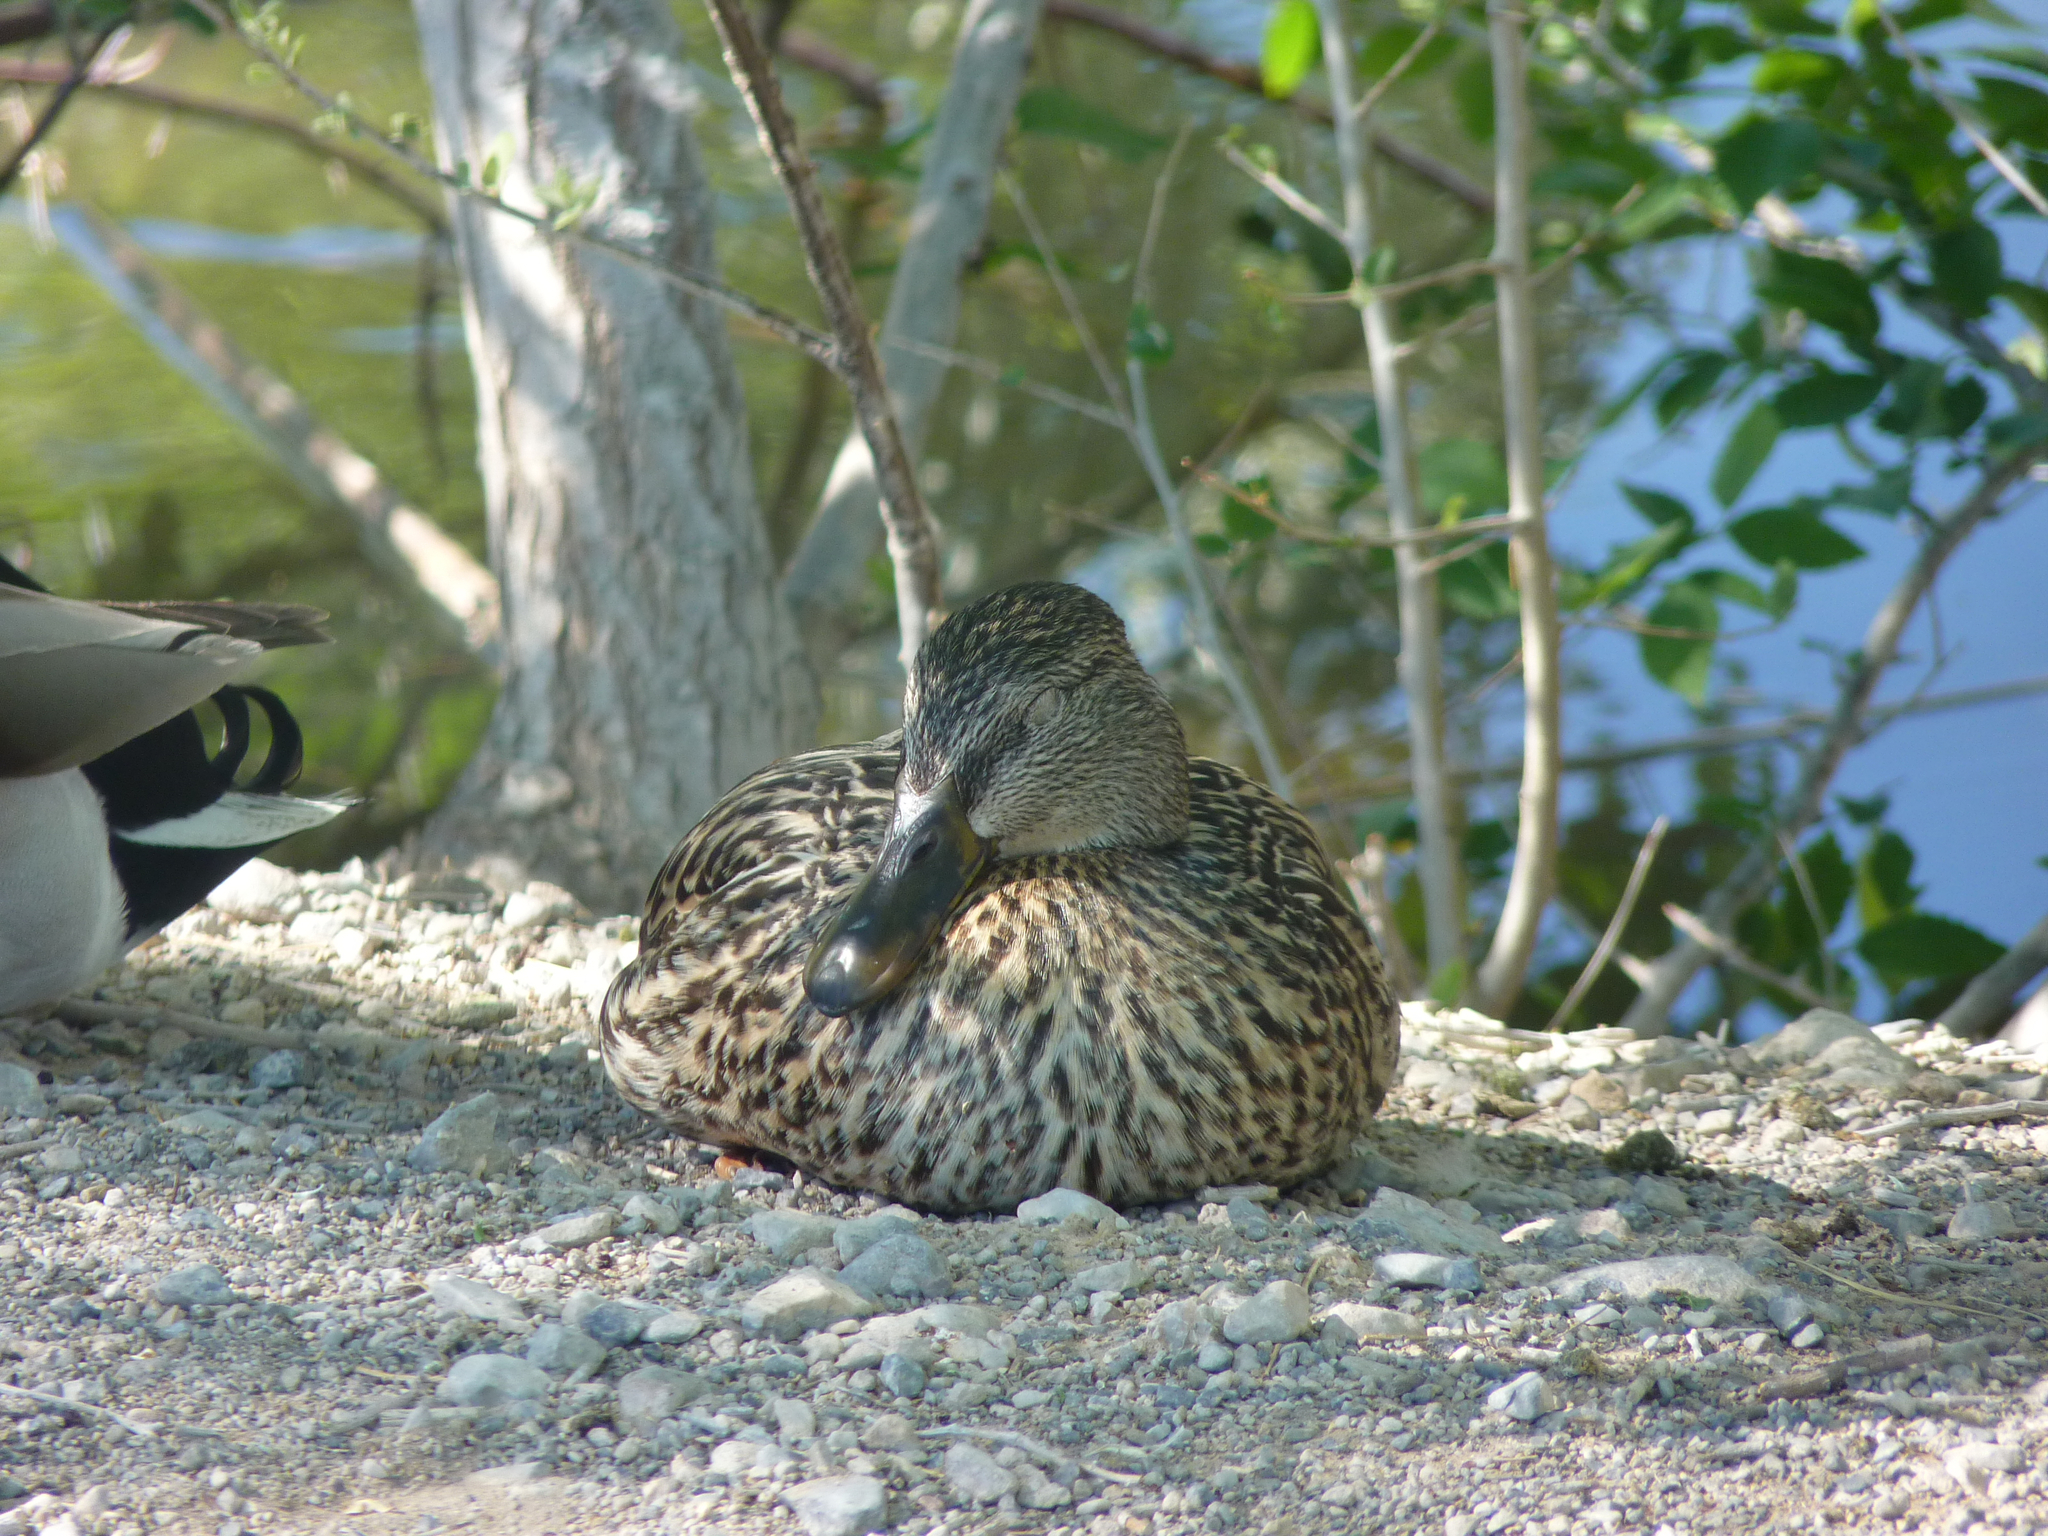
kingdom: Animalia
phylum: Chordata
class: Aves
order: Anseriformes
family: Anatidae
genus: Anas
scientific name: Anas platyrhynchos
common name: Mallard
